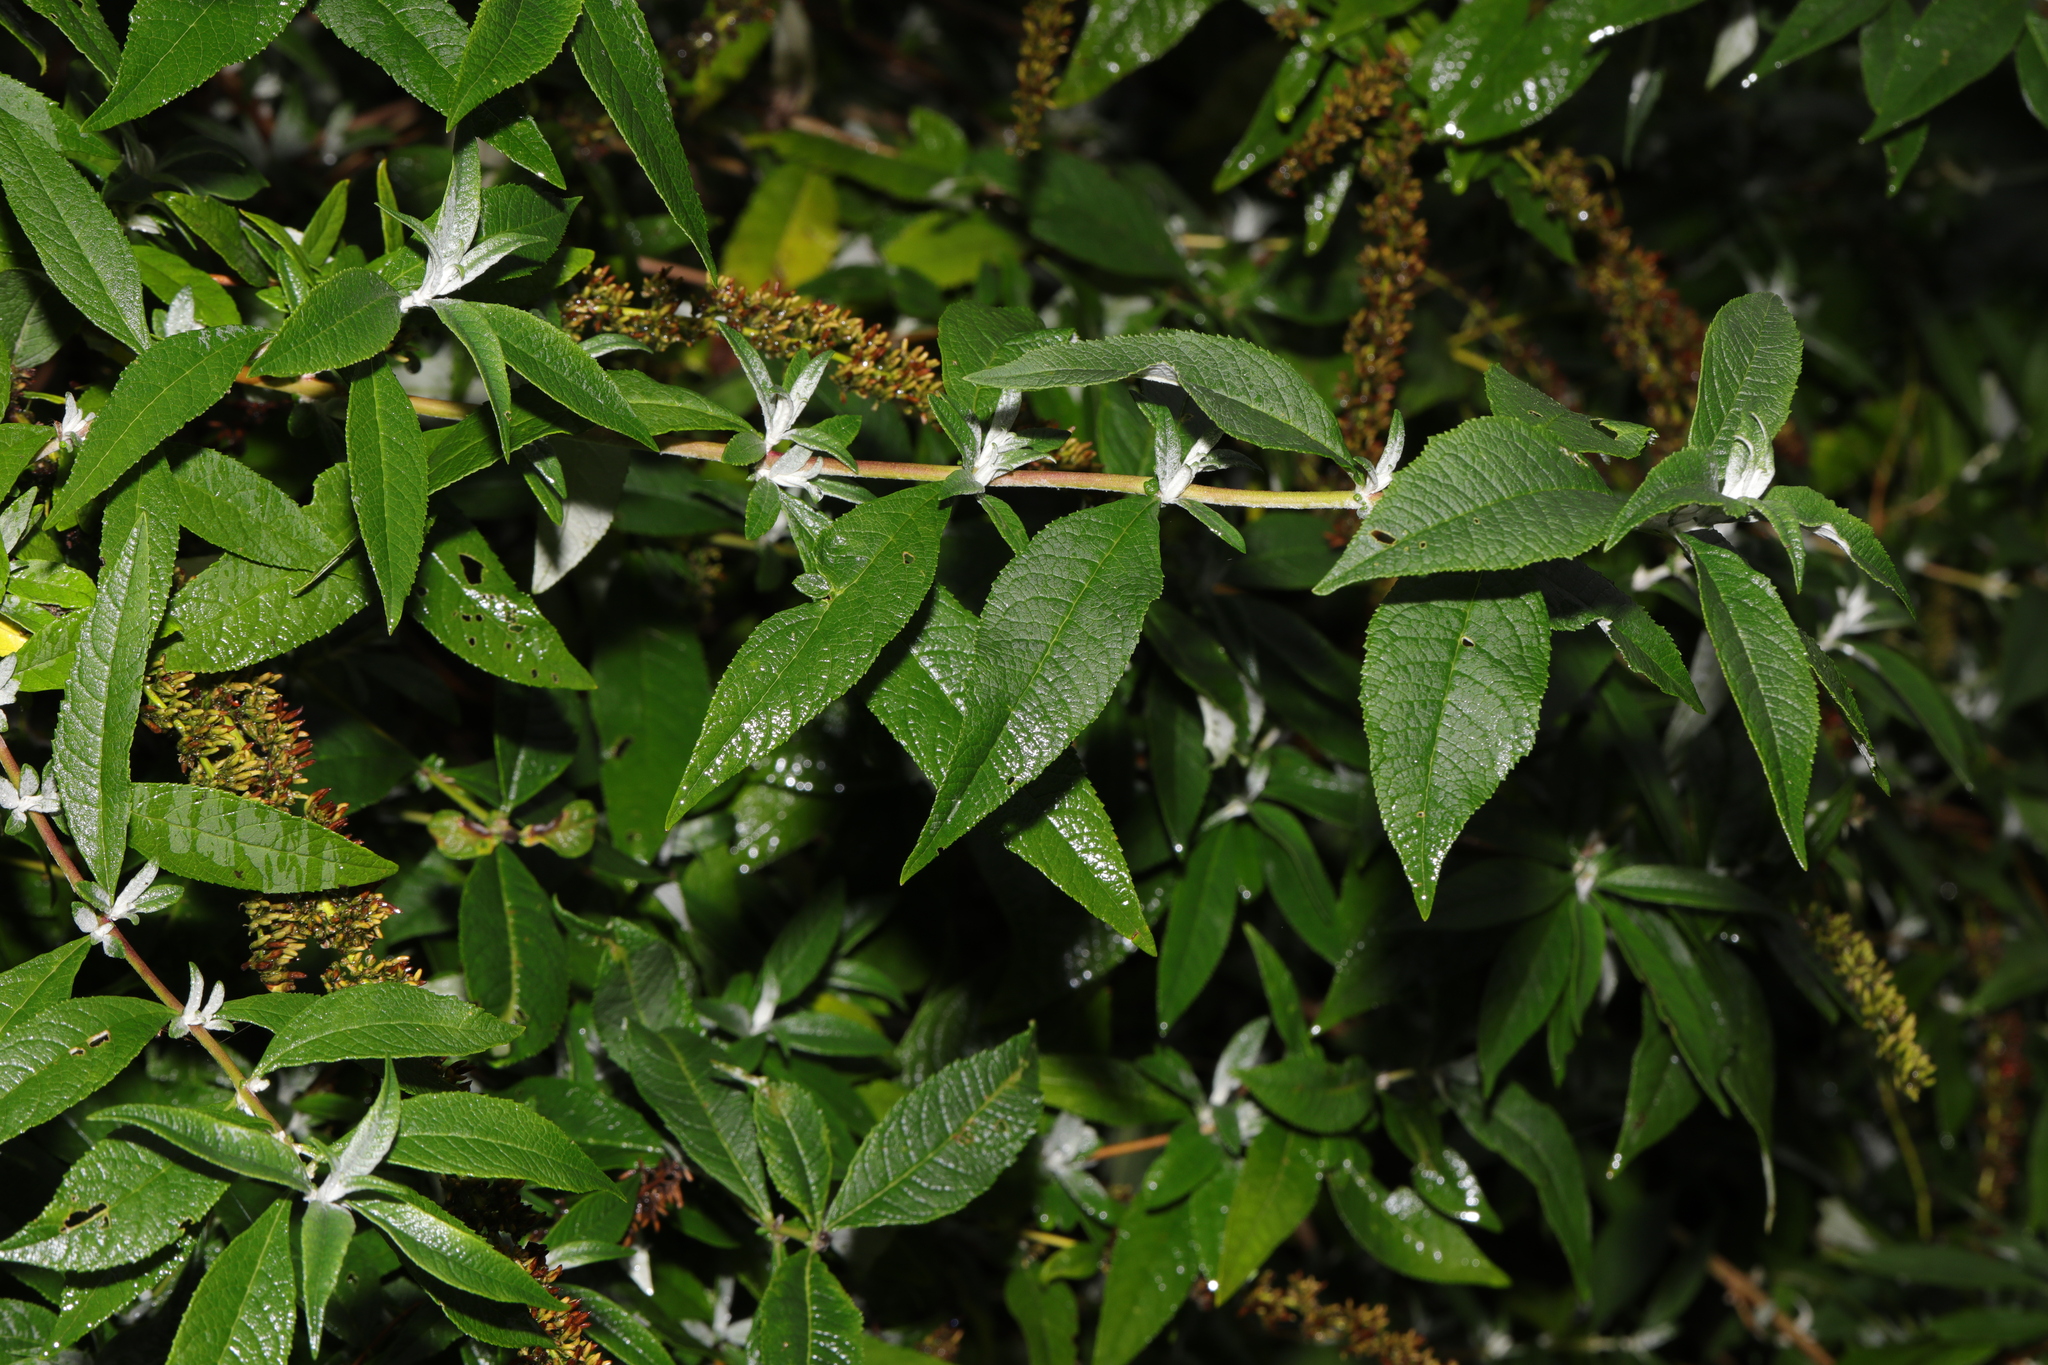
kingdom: Plantae
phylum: Tracheophyta
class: Magnoliopsida
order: Lamiales
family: Scrophulariaceae
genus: Buddleja
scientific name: Buddleja davidii
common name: Butterfly-bush
